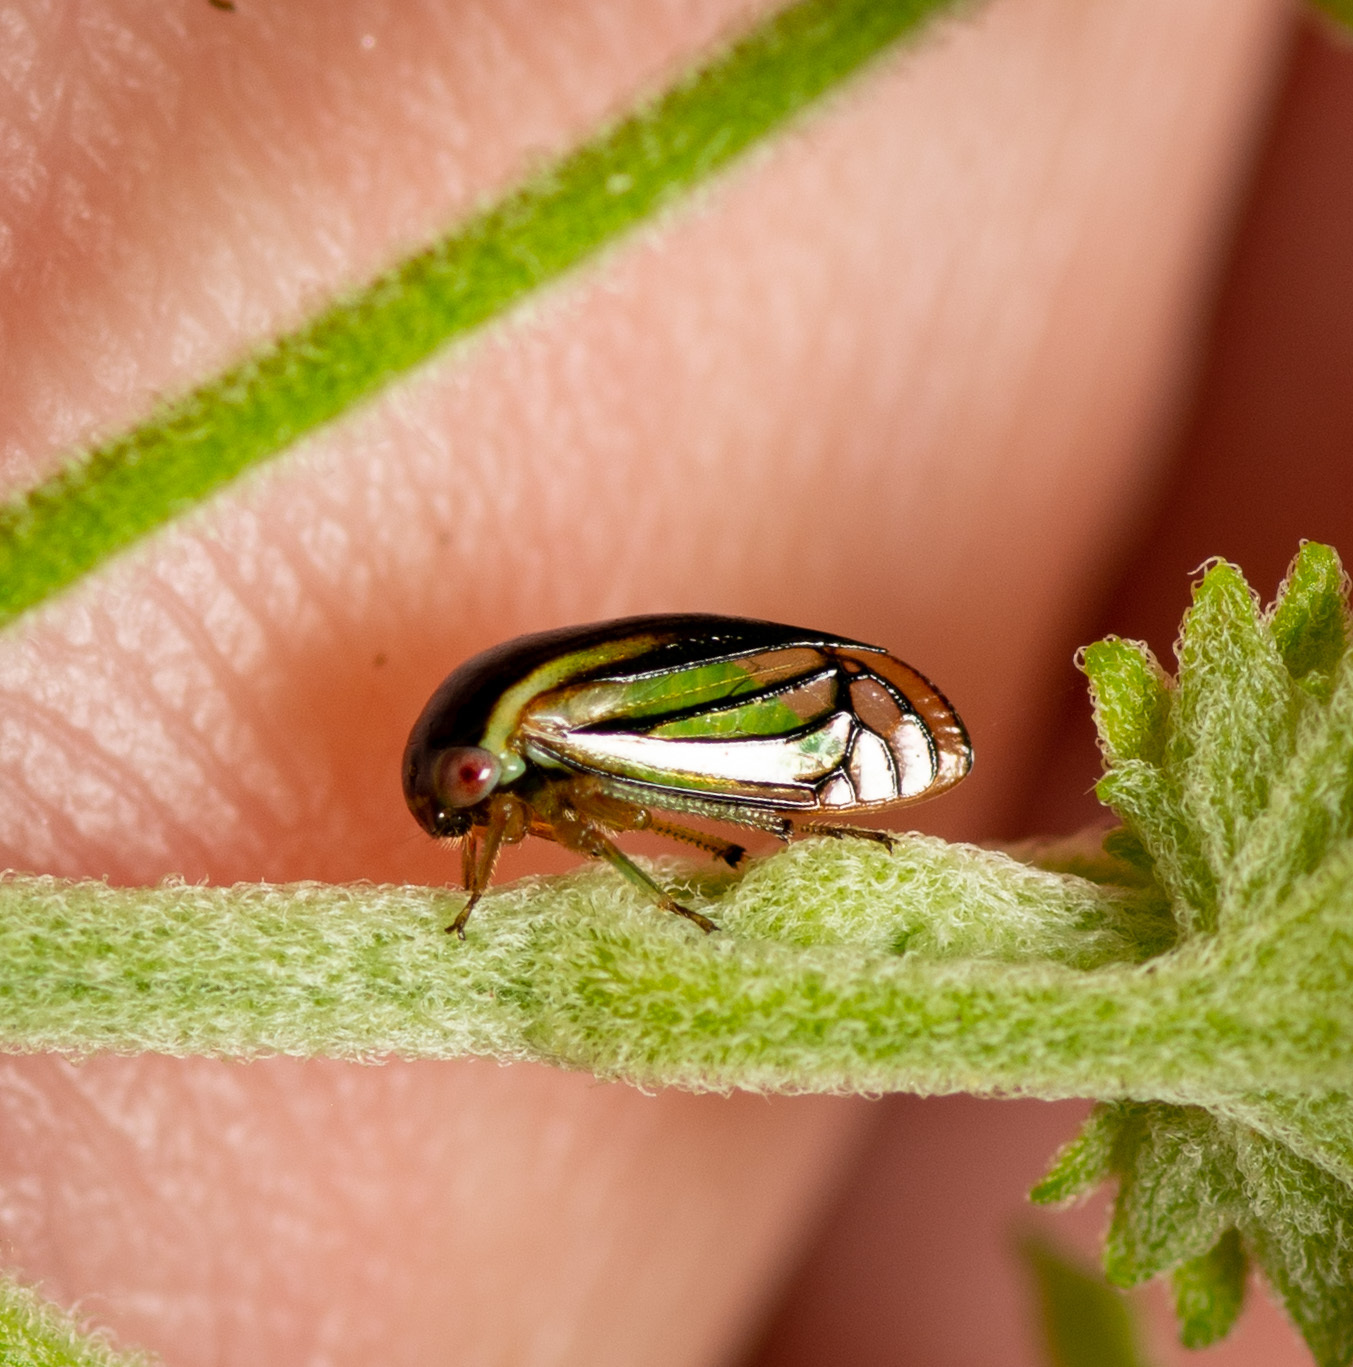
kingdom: Animalia
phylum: Arthropoda
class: Insecta
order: Hemiptera
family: Membracidae
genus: Acutalis
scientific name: Acutalis tartarea
